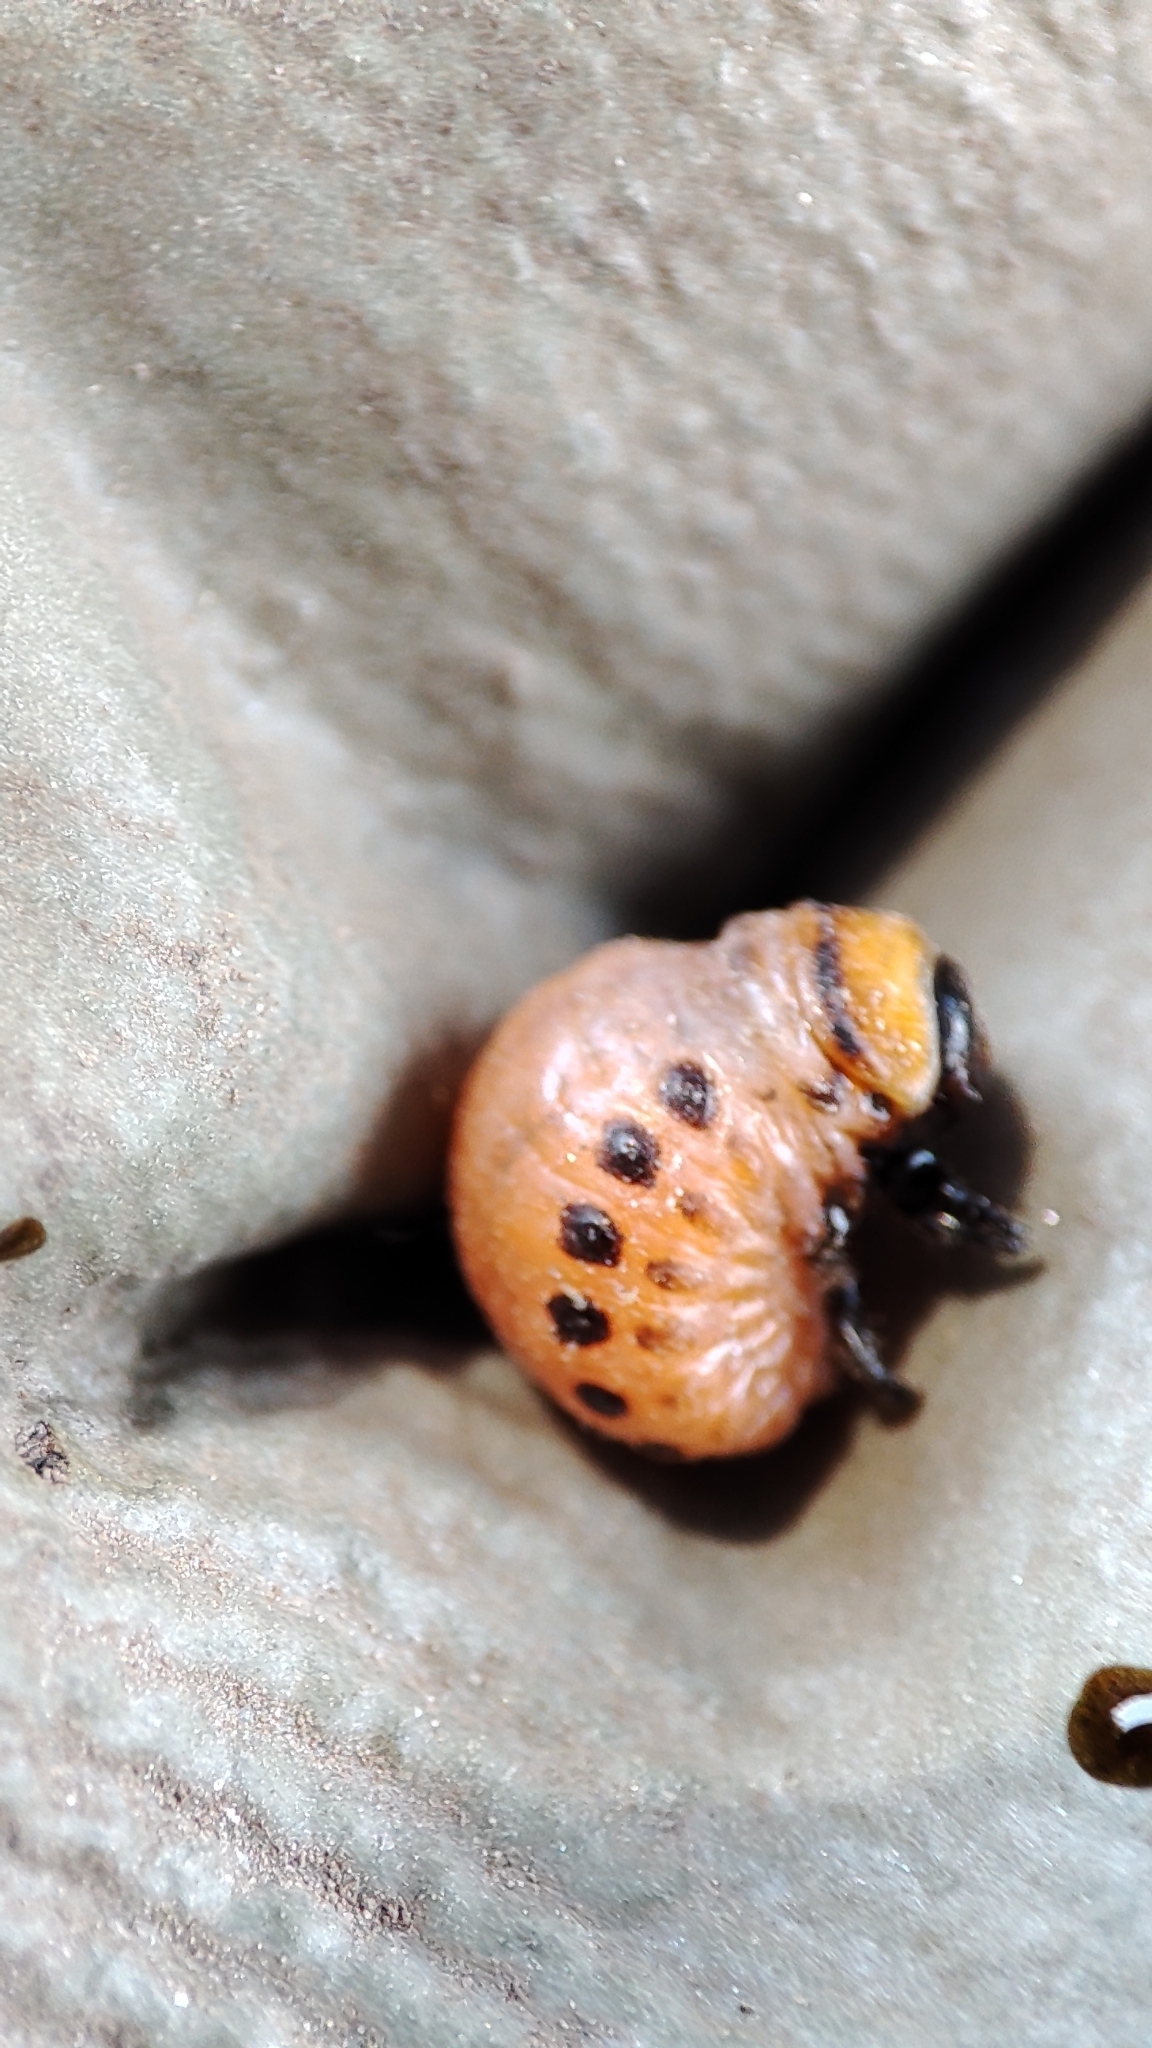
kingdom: Animalia
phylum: Arthropoda
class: Insecta
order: Coleoptera
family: Chrysomelidae
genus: Leptinotarsa
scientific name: Leptinotarsa decemlineata
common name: Colorado potato beetle
